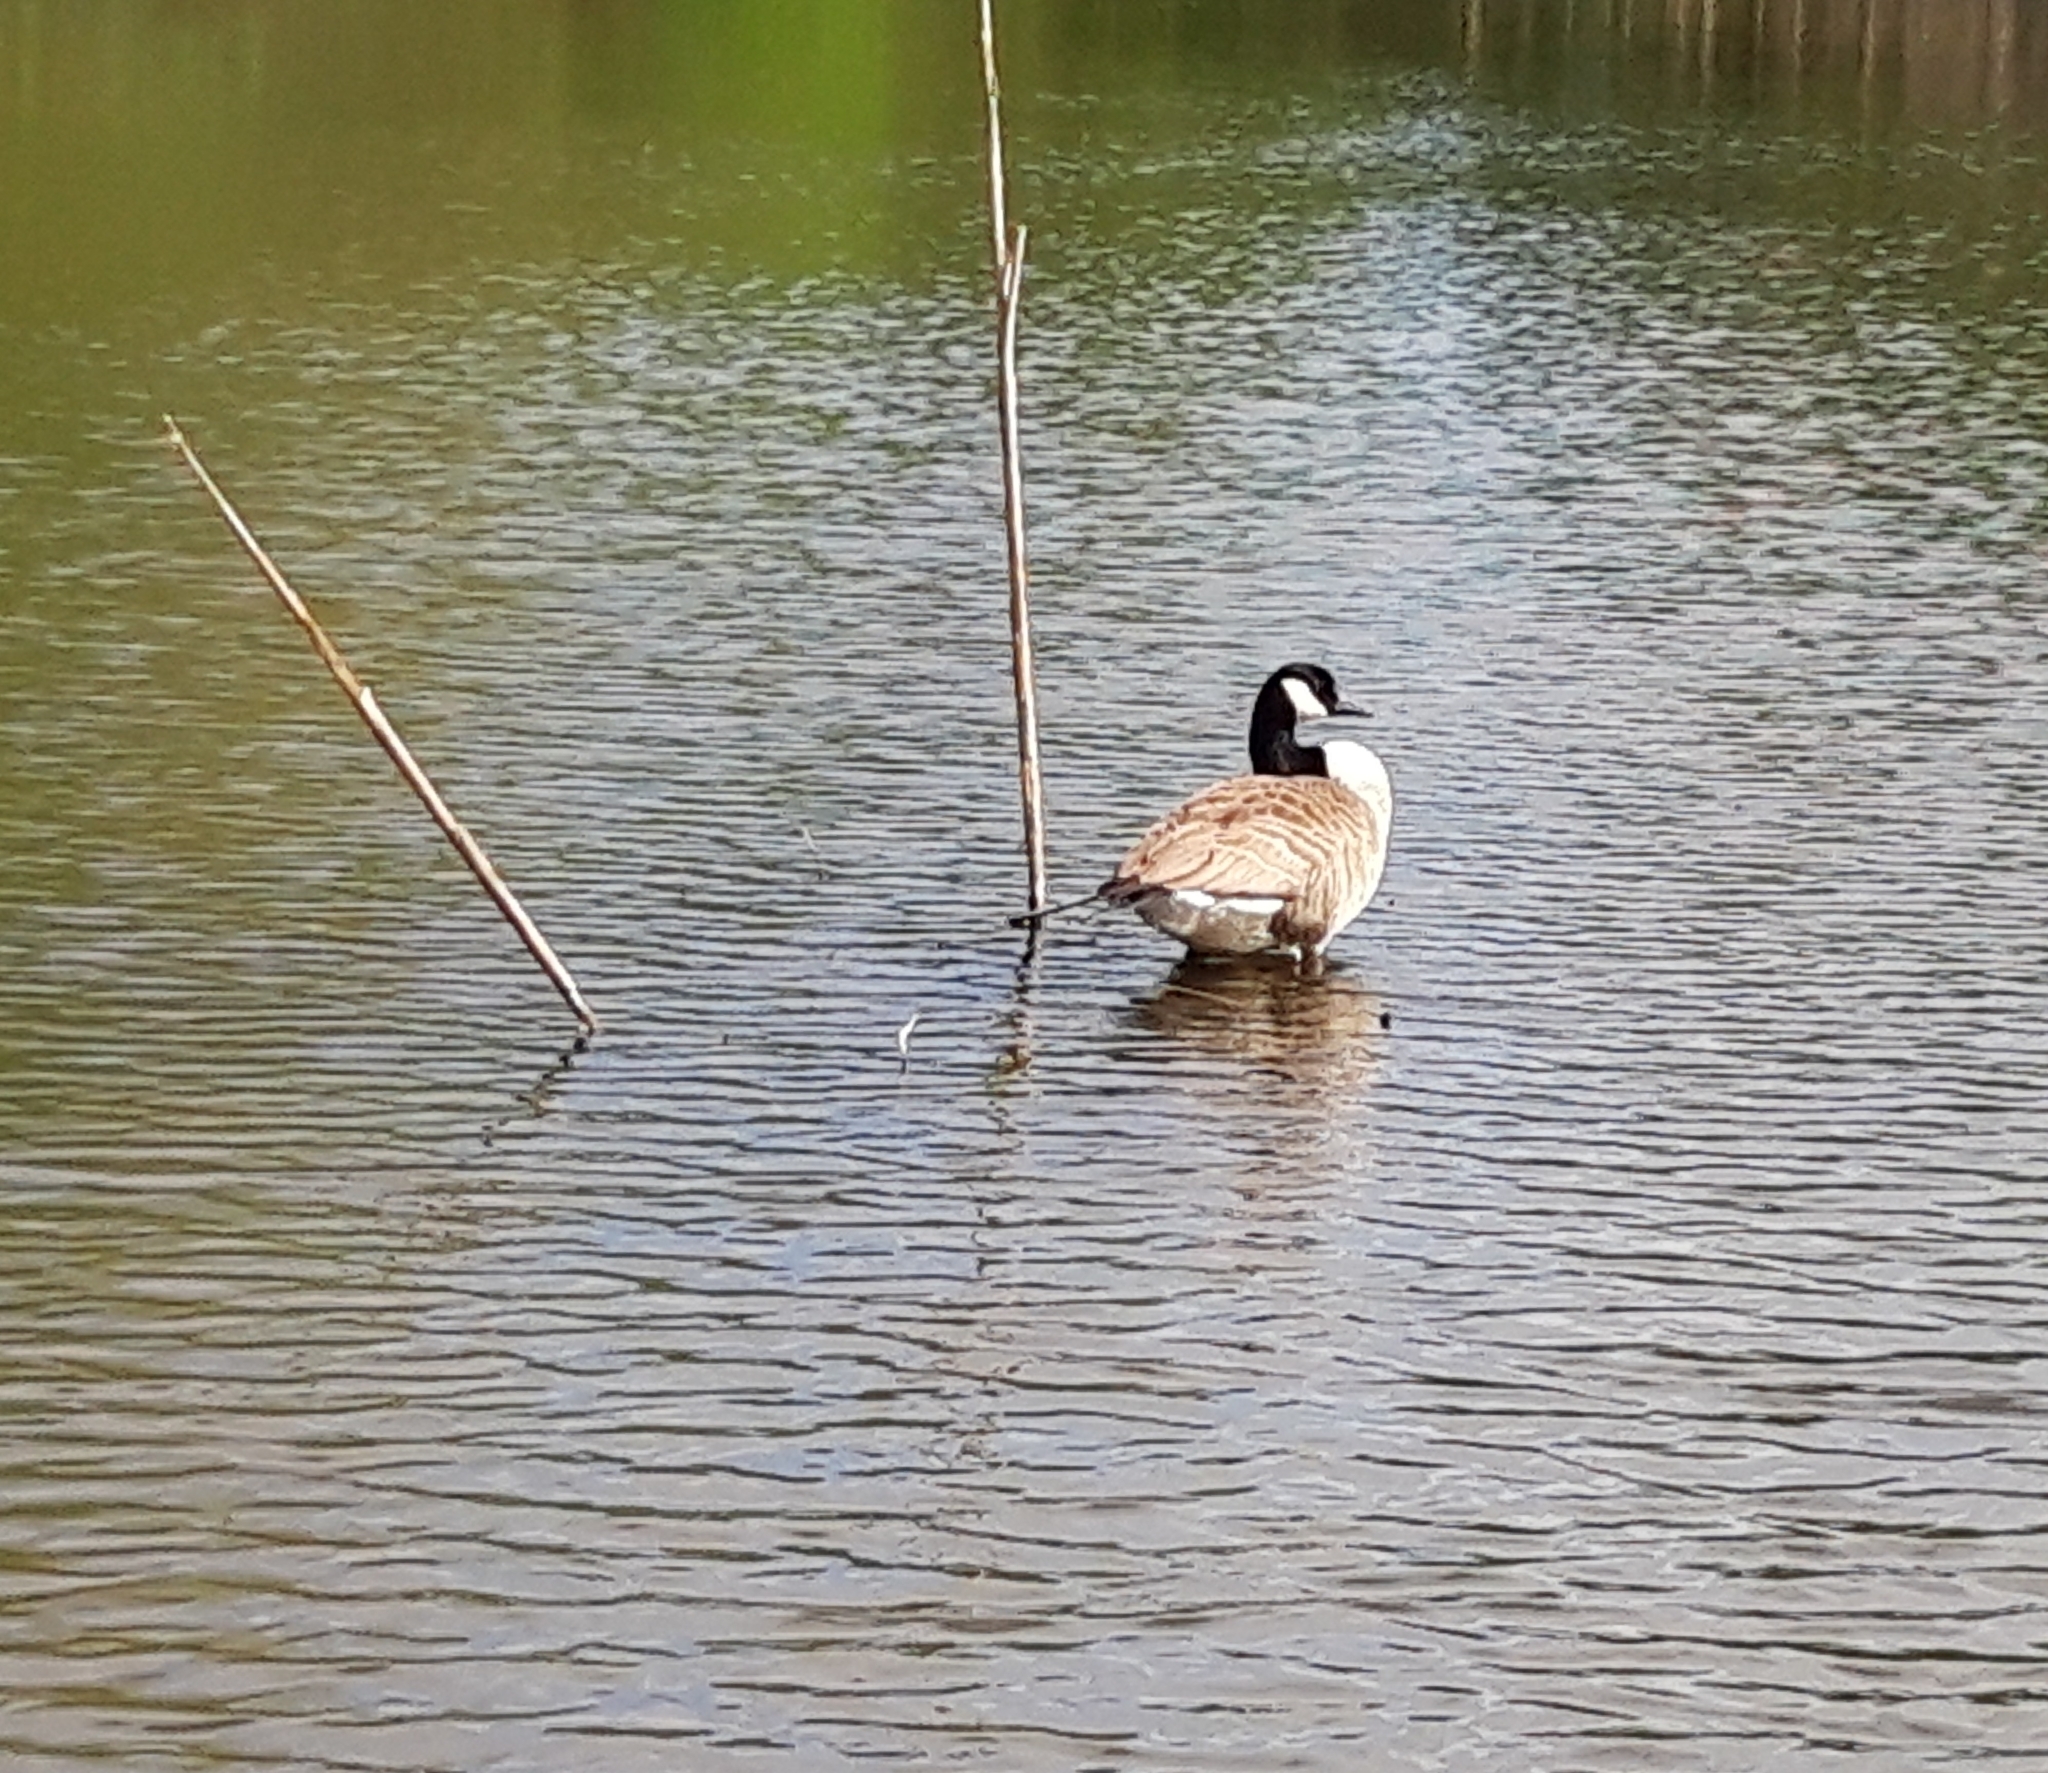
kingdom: Animalia
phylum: Chordata
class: Aves
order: Anseriformes
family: Anatidae
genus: Branta
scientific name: Branta canadensis
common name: Canada goose
